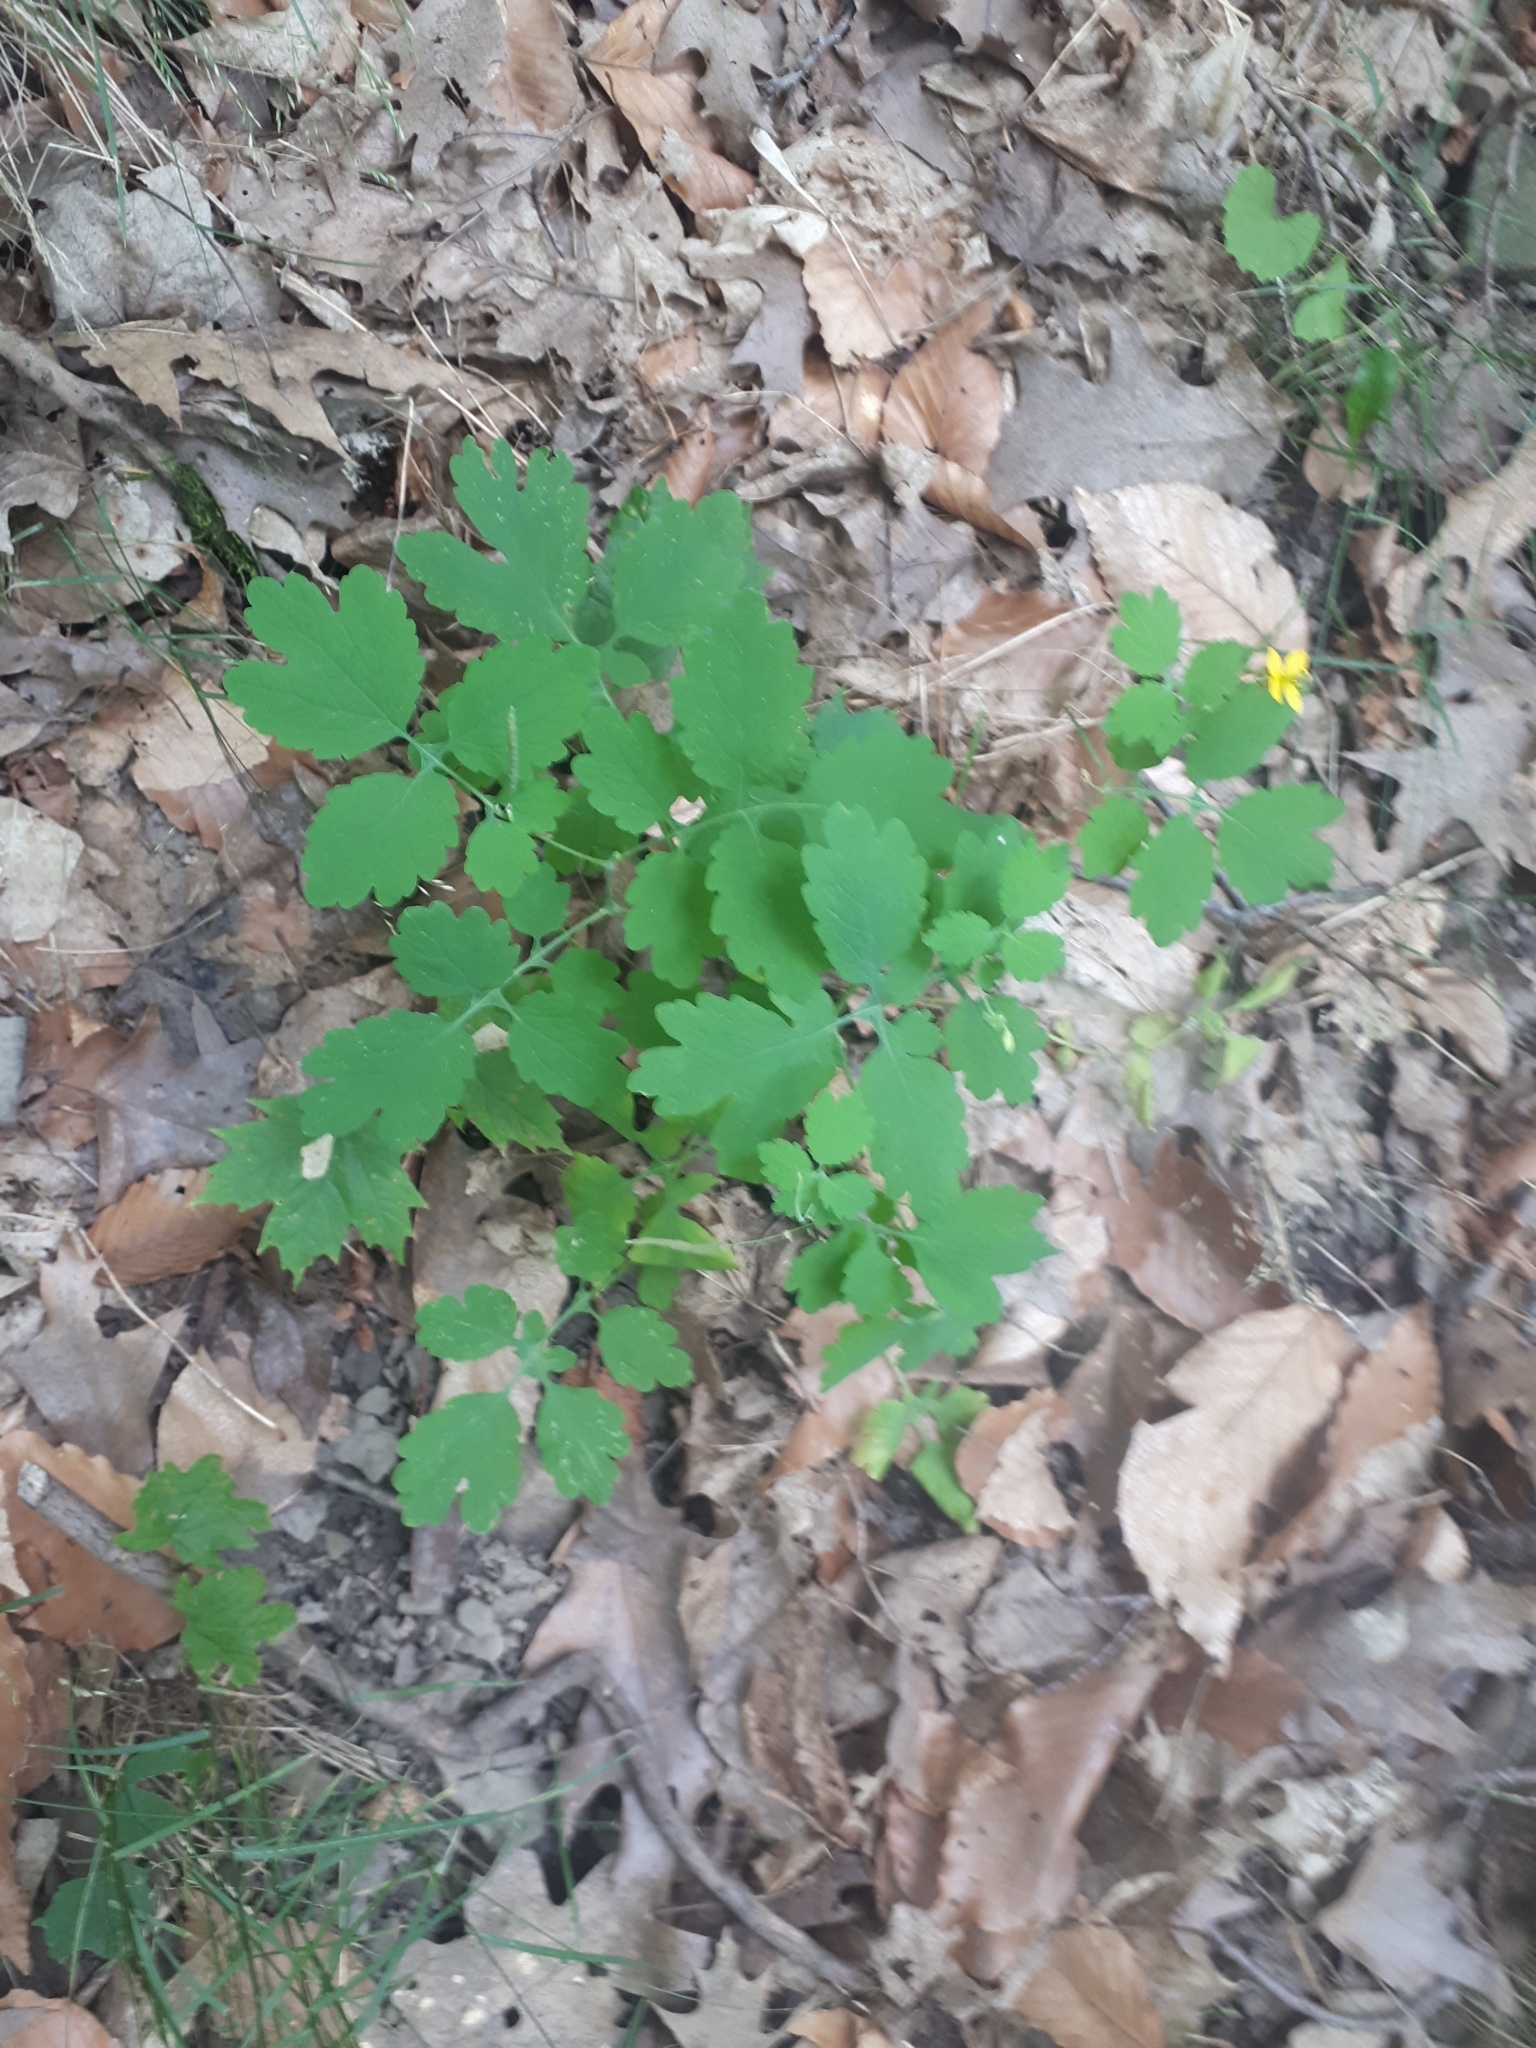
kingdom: Plantae
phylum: Tracheophyta
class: Magnoliopsida
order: Ranunculales
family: Papaveraceae
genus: Chelidonium
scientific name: Chelidonium majus
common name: Greater celandine
